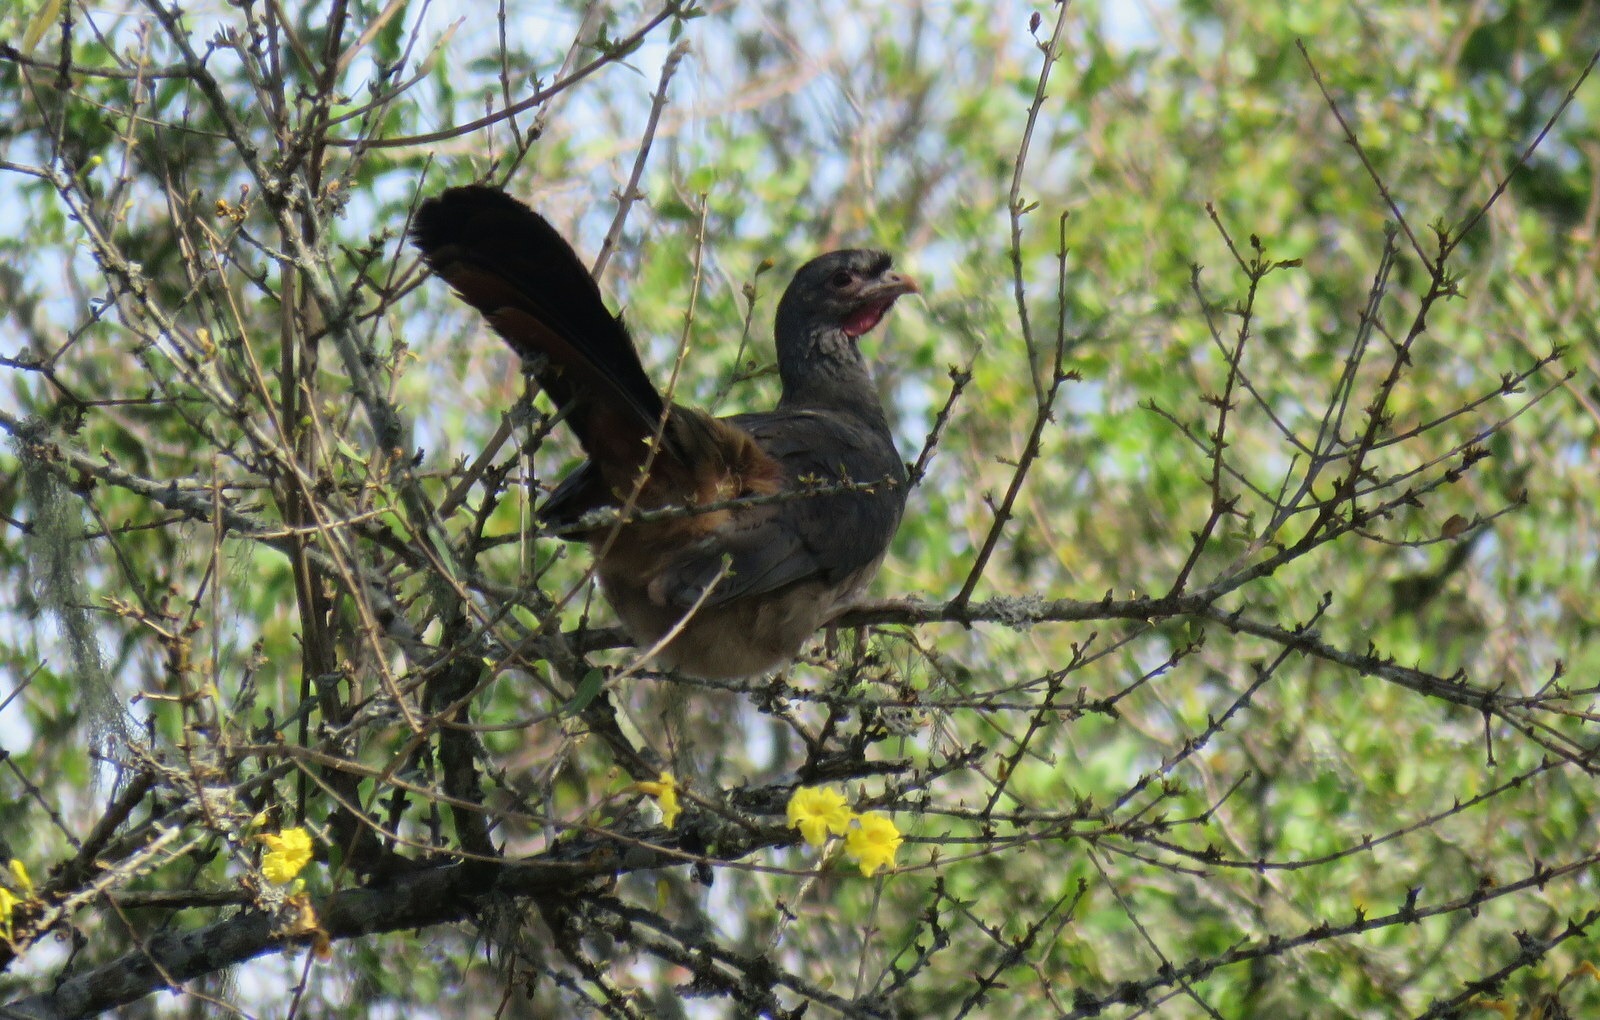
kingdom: Animalia
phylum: Chordata
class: Aves
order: Galliformes
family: Cracidae
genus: Ortalis
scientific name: Ortalis canicollis
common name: Chaco chachalaca
